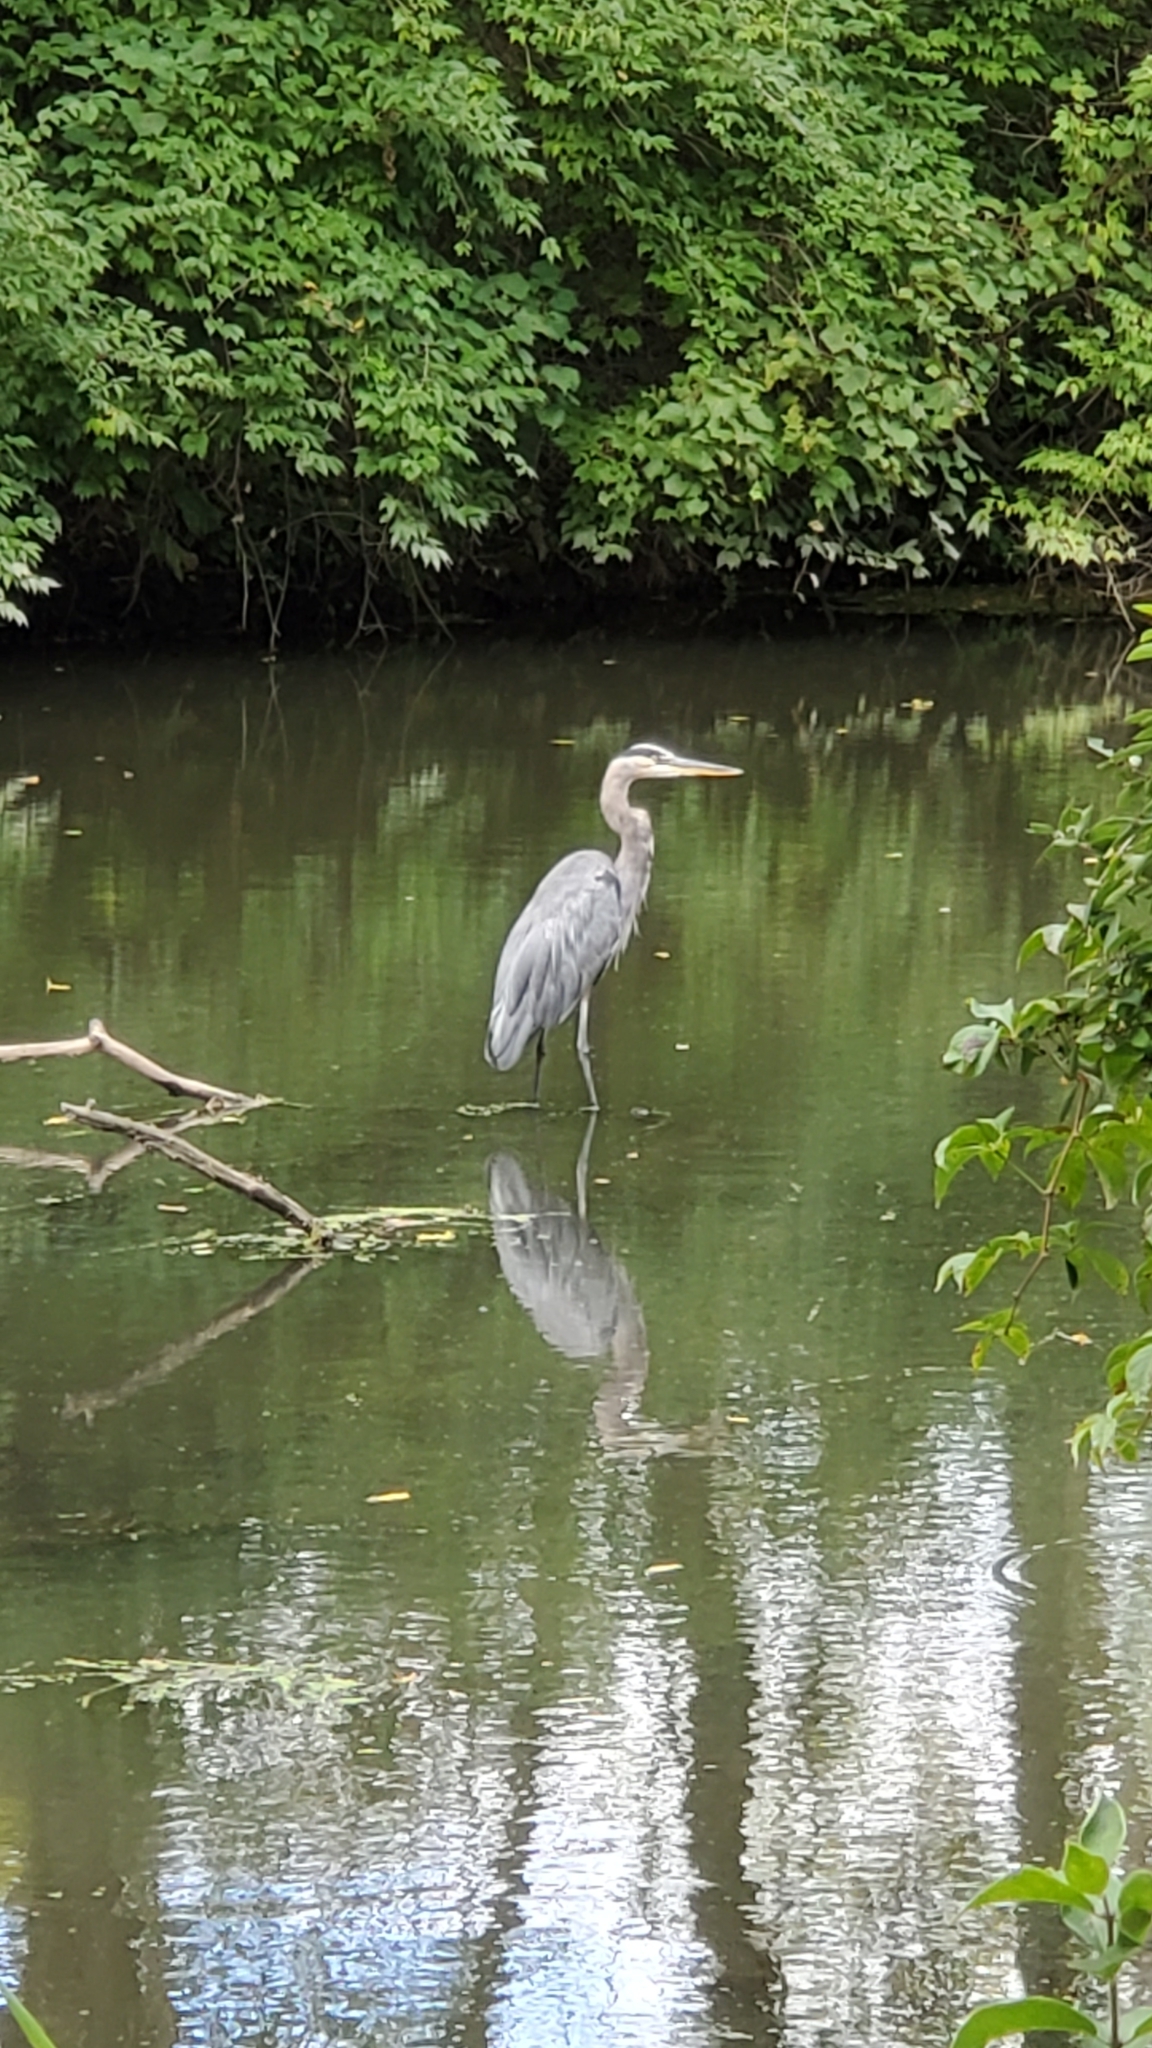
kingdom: Animalia
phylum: Chordata
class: Aves
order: Pelecaniformes
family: Ardeidae
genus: Ardea
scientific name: Ardea herodias
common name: Great blue heron
